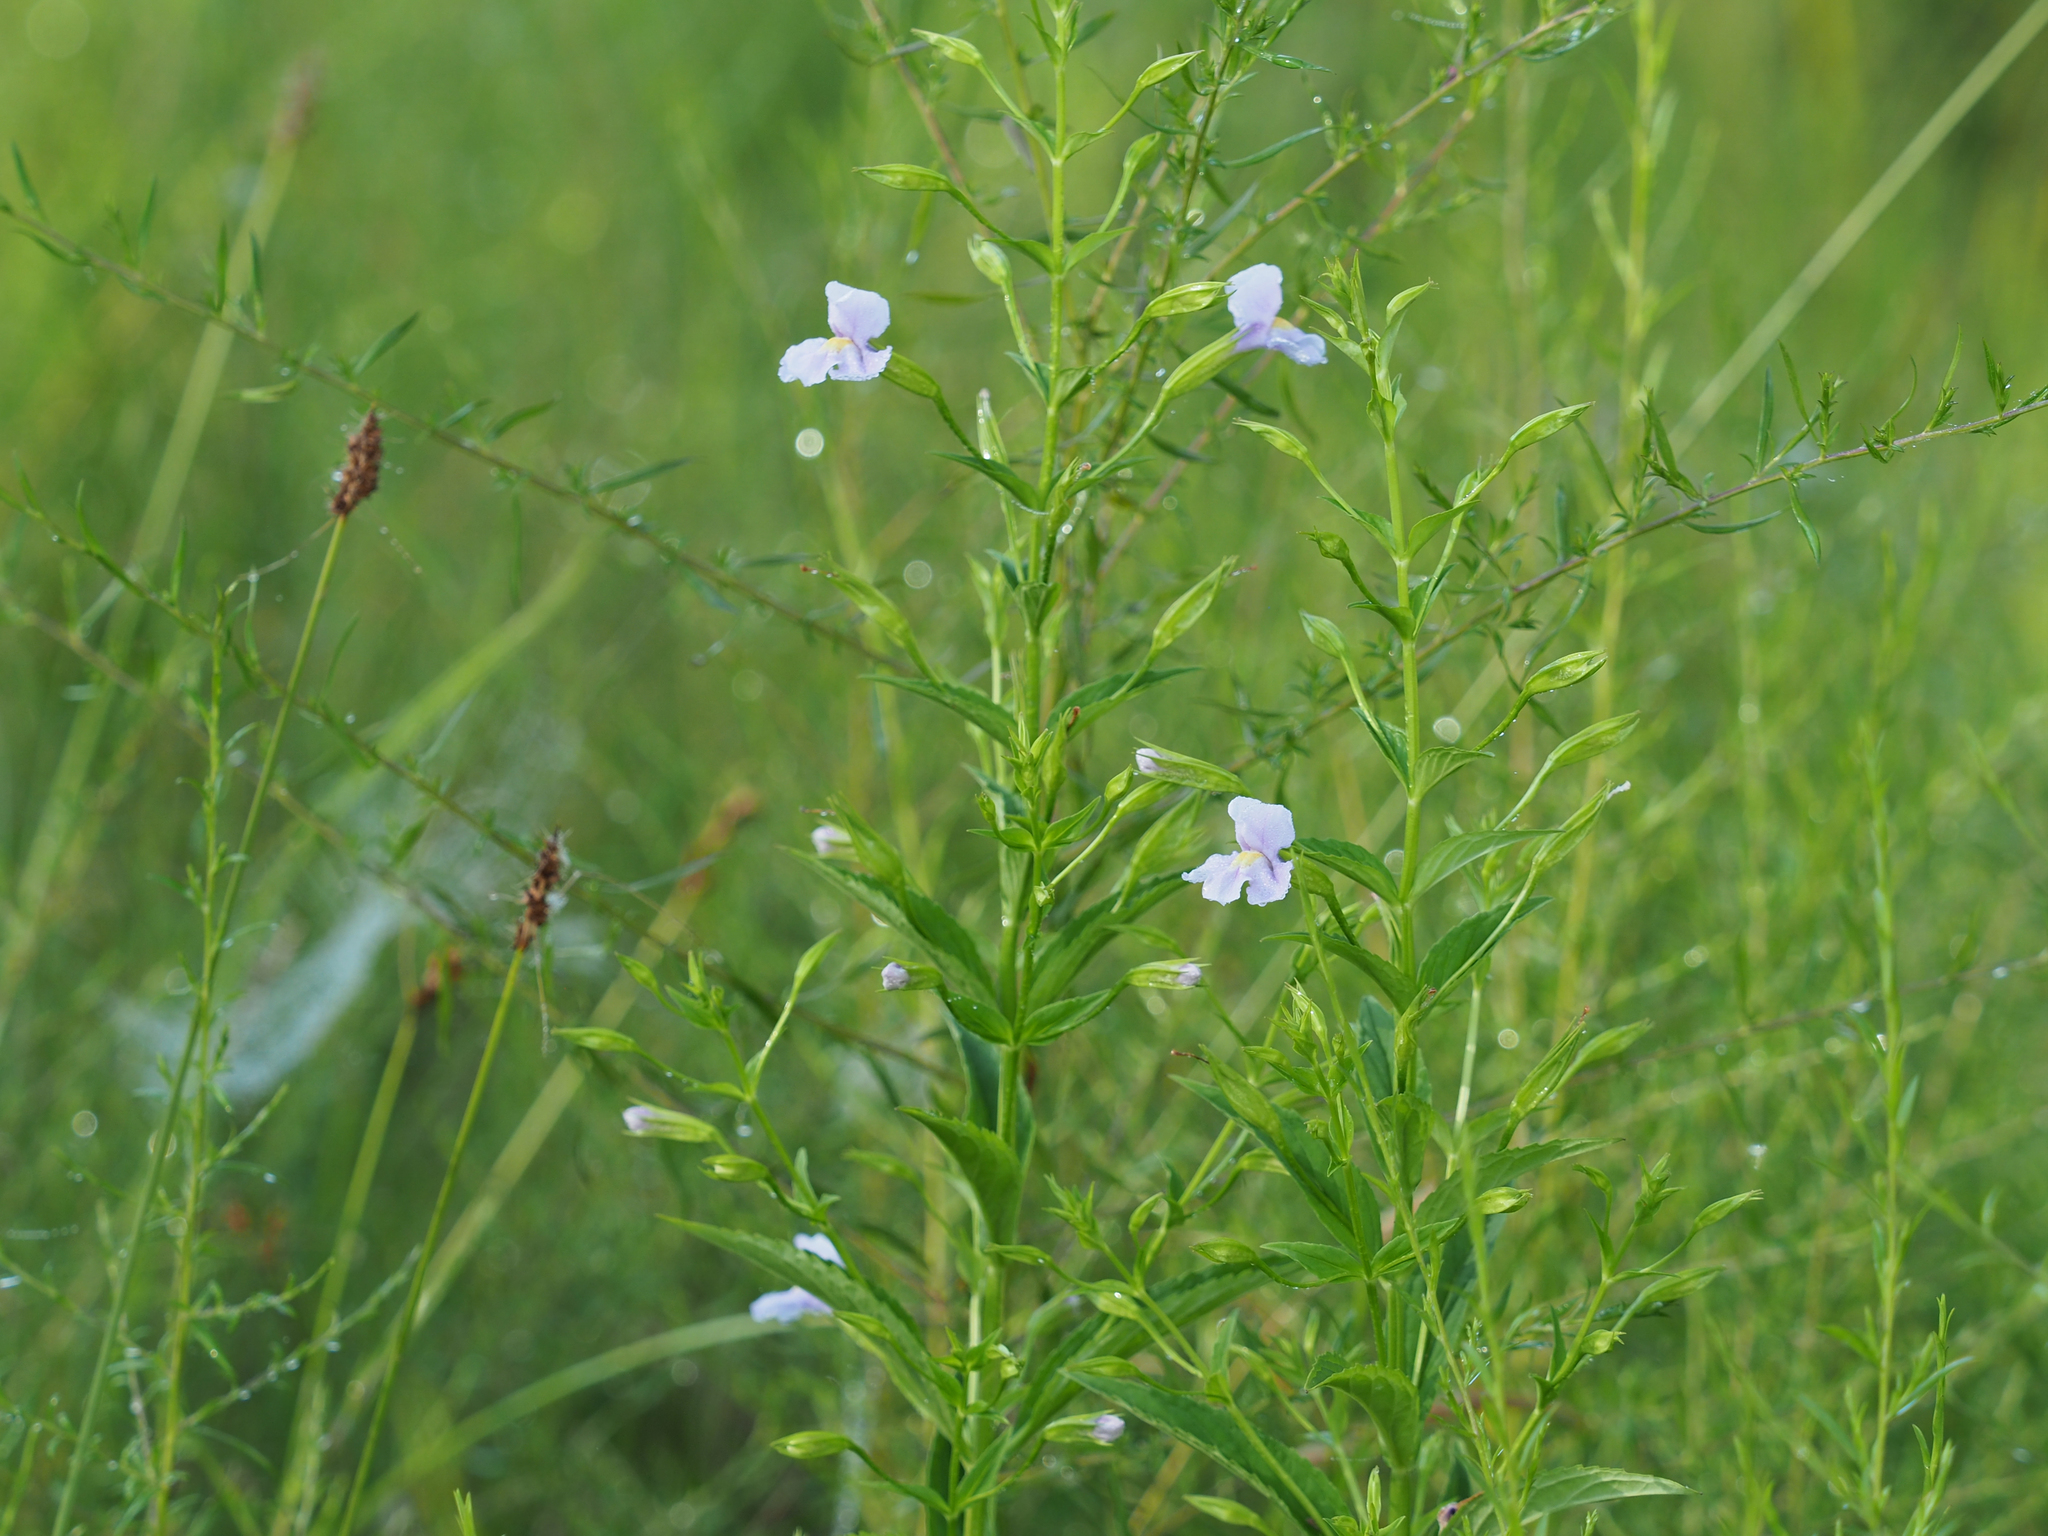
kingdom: Plantae
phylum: Tracheophyta
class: Magnoliopsida
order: Lamiales
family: Phrymaceae
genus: Mimulus
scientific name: Mimulus ringens
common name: Allegheny monkeyflower
